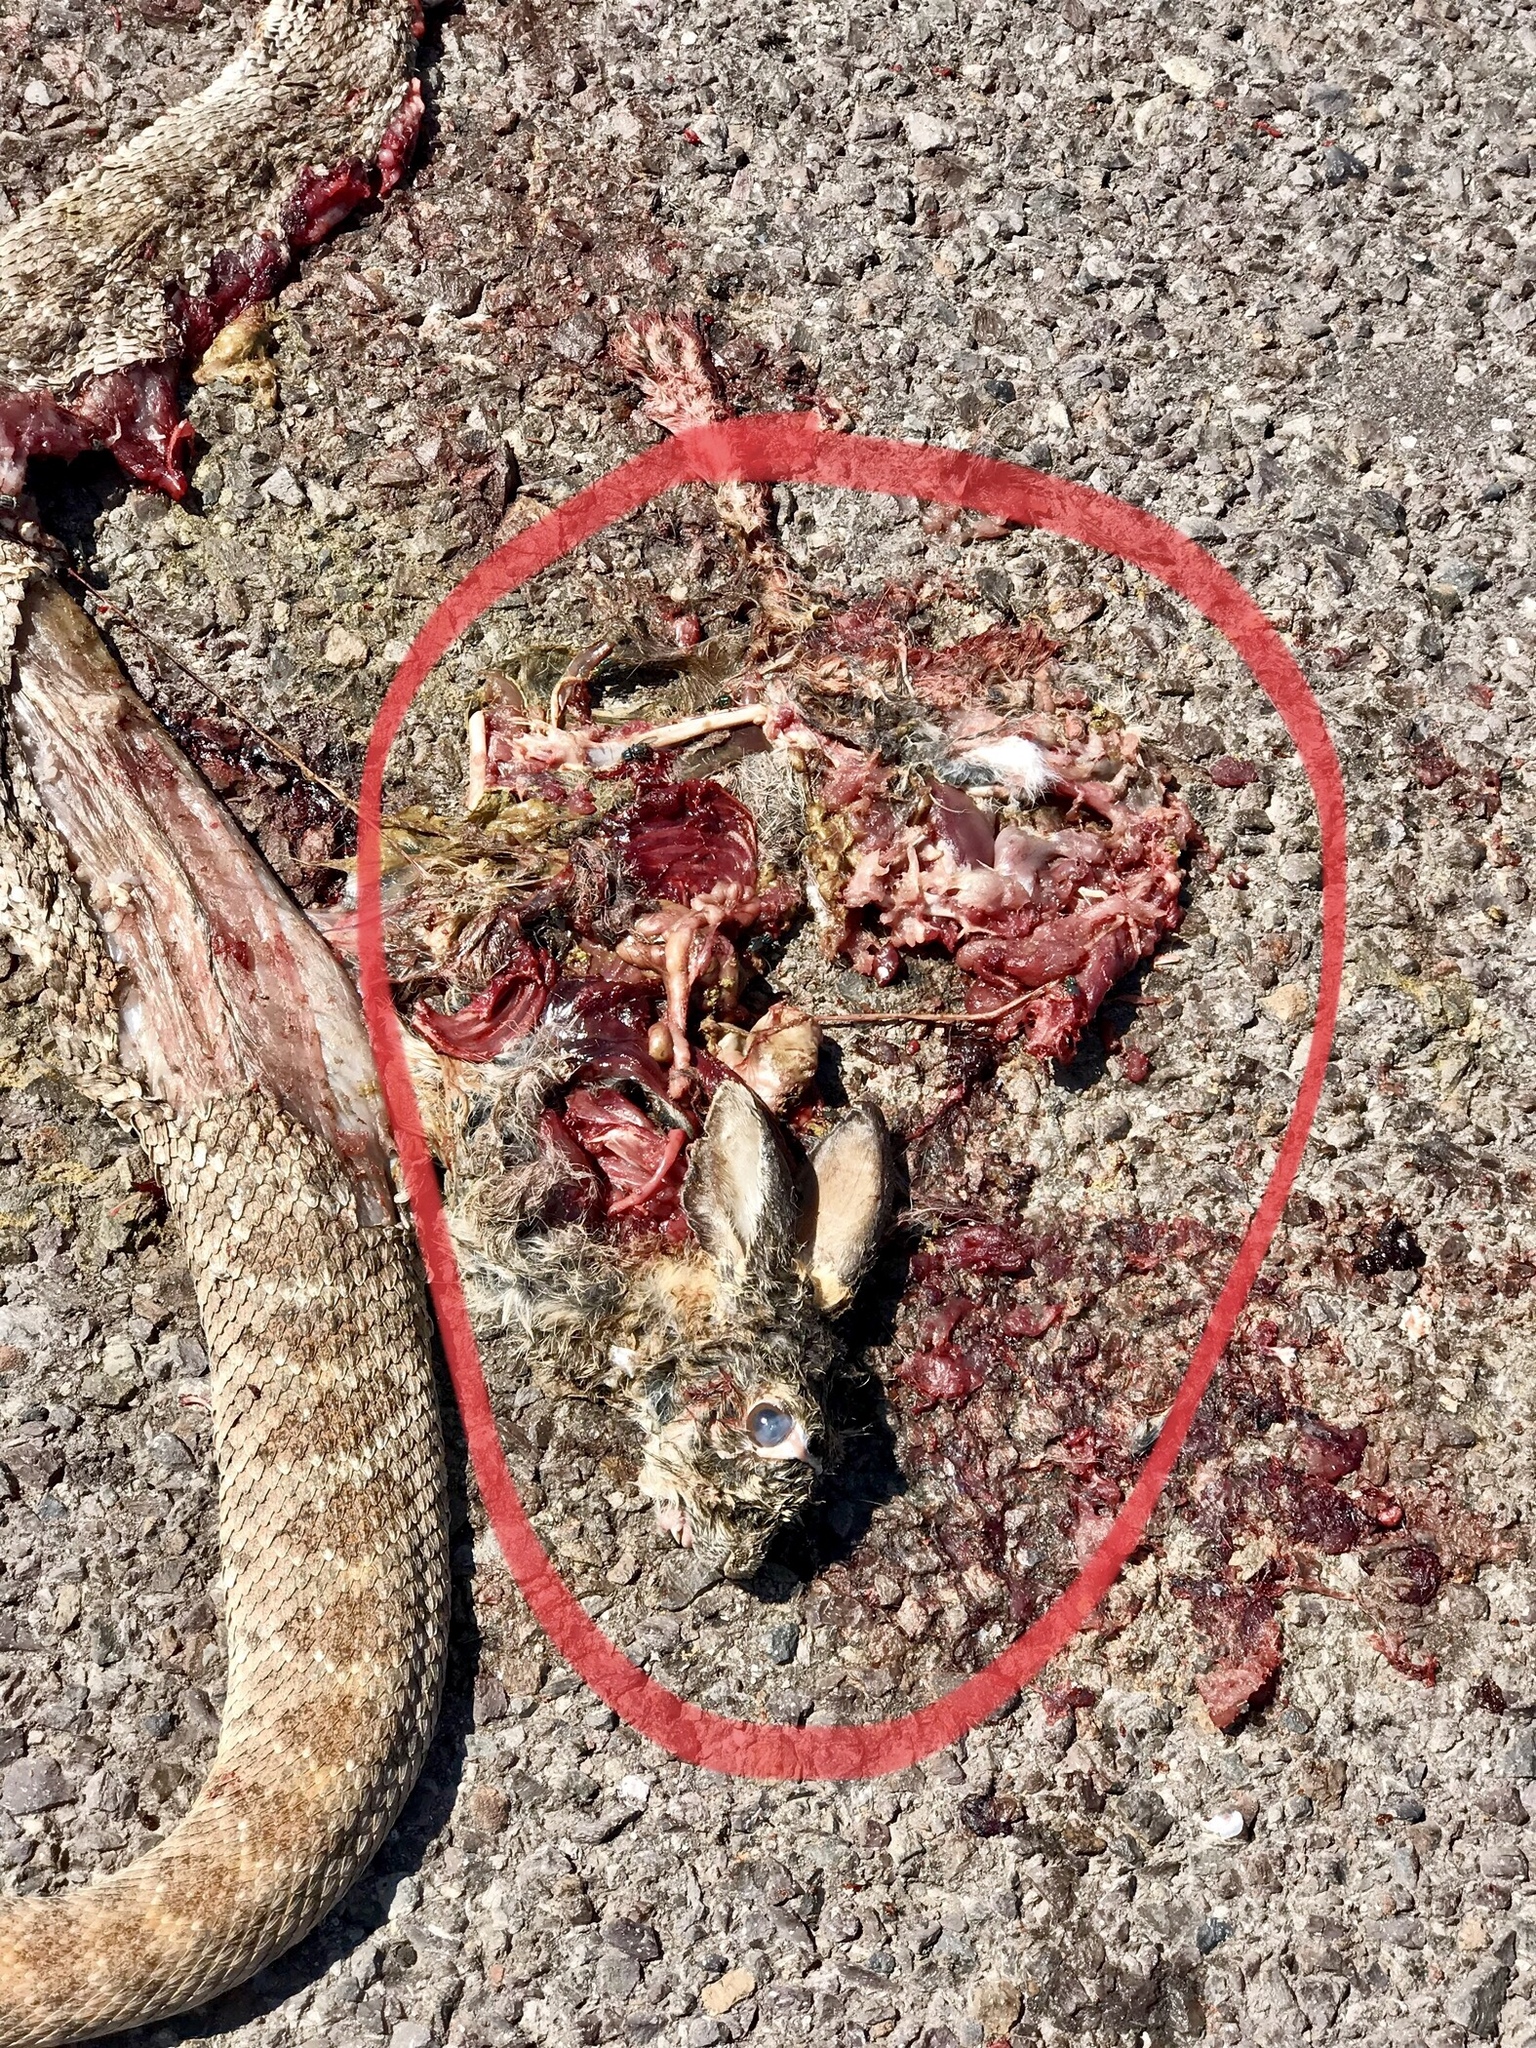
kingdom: Animalia
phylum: Chordata
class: Squamata
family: Viperidae
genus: Crotalus
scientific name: Crotalus atrox
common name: Western diamond-backed rattlesnake
